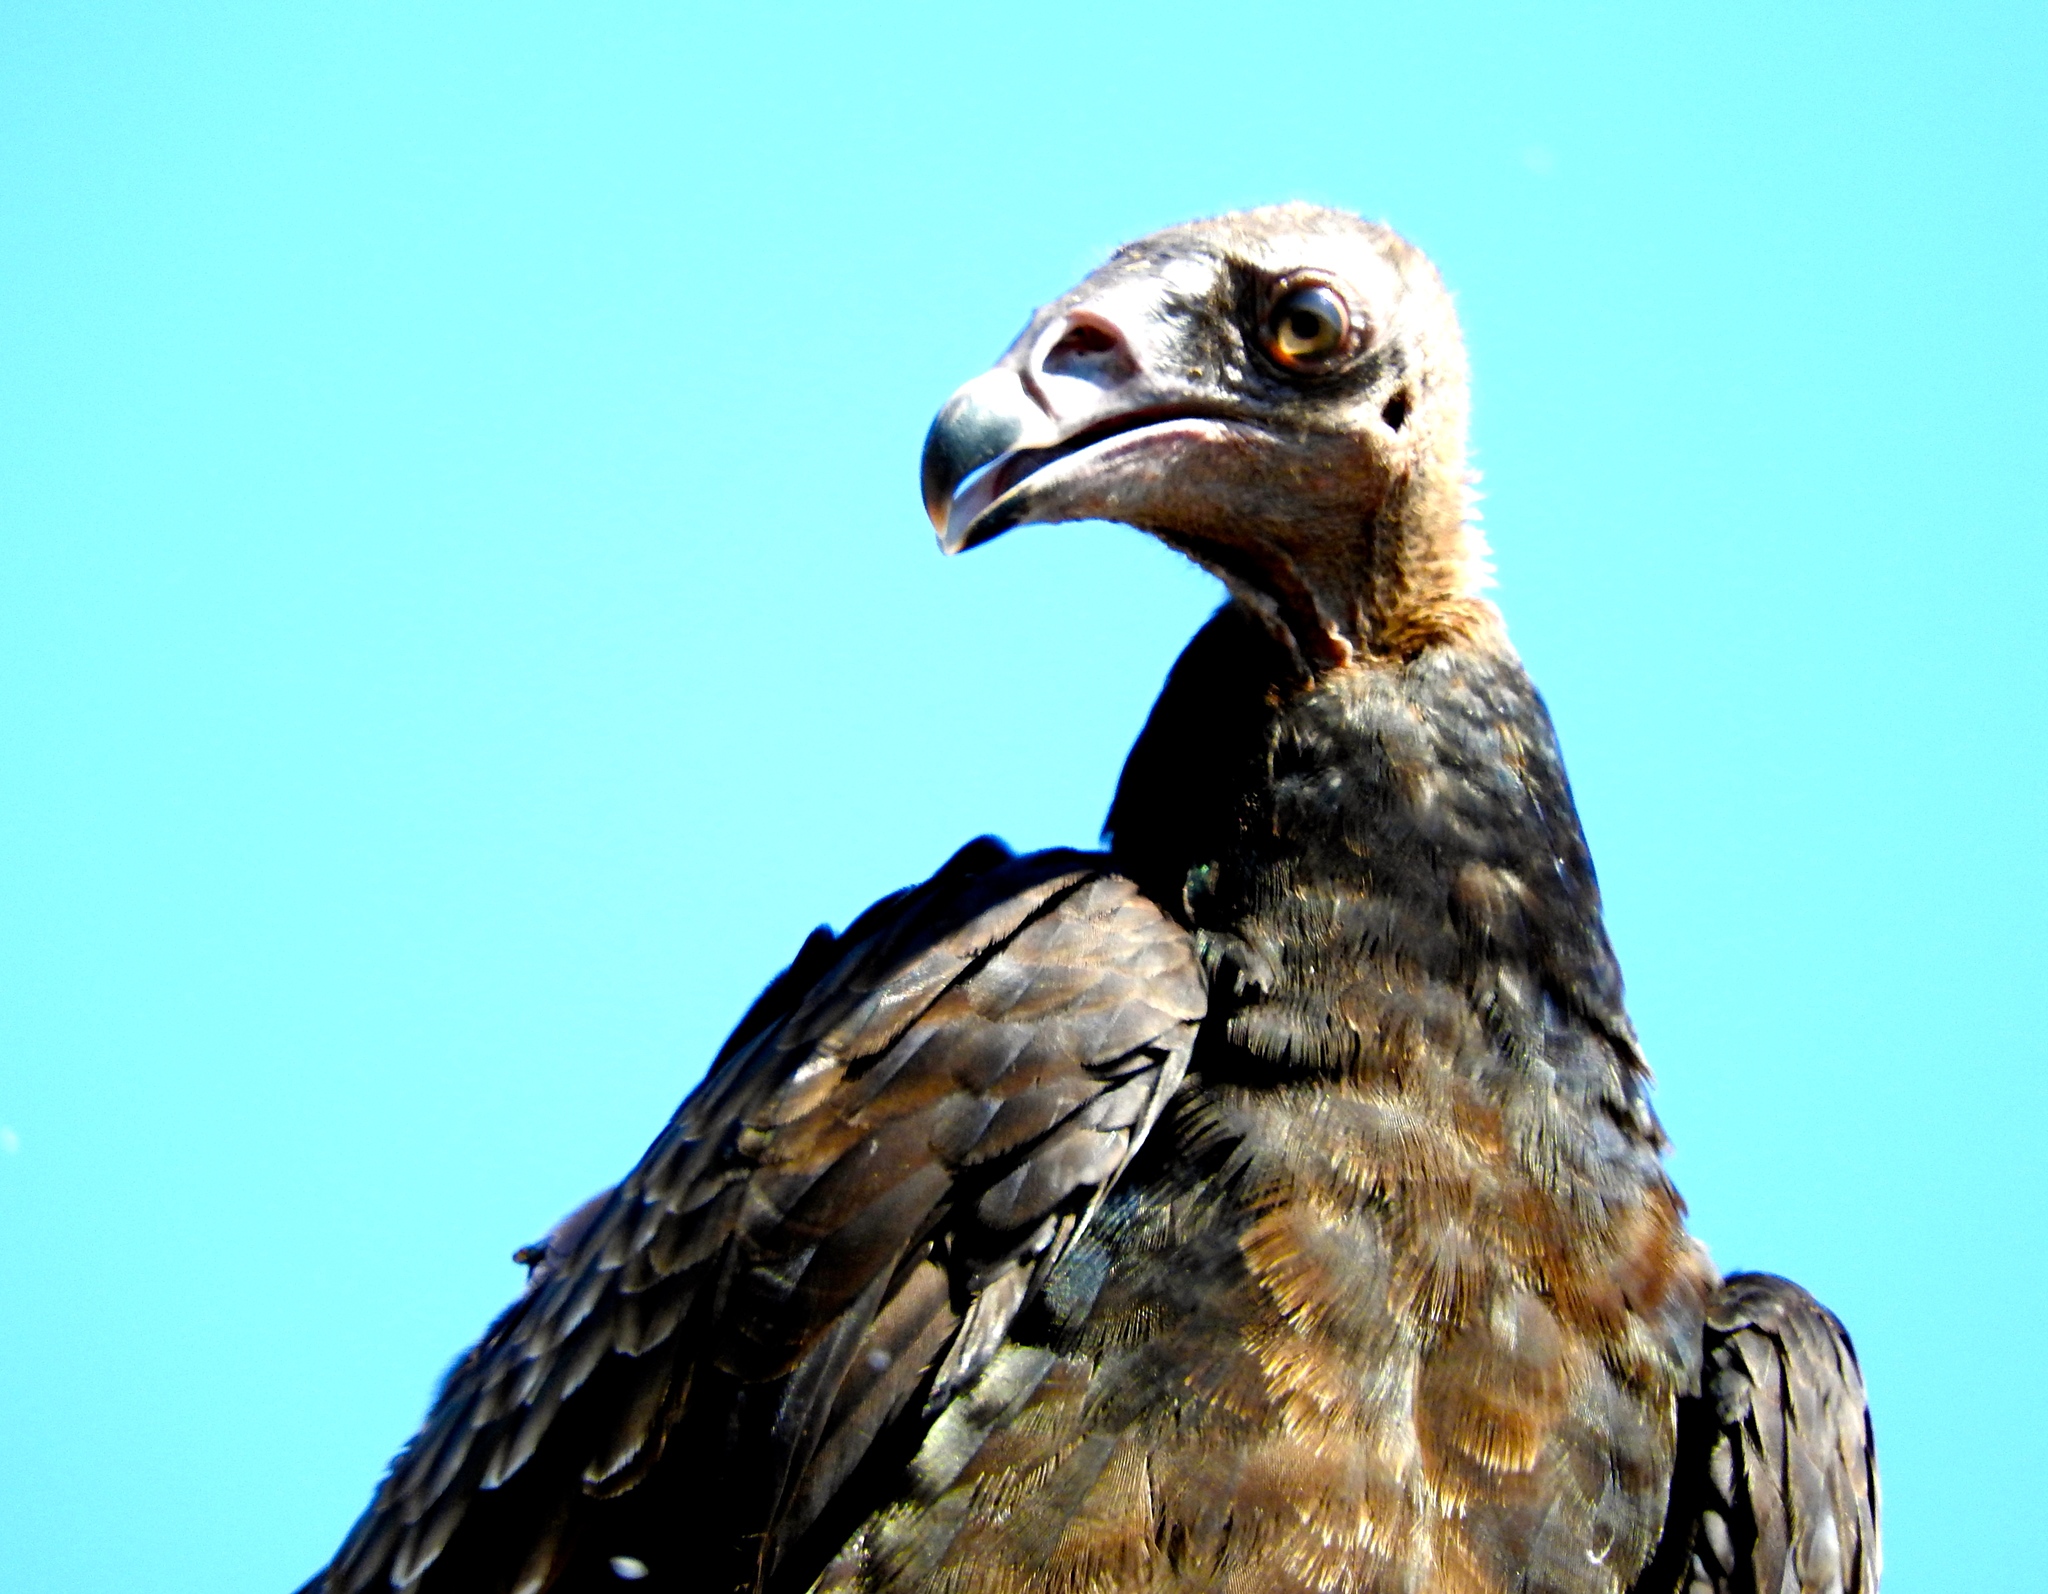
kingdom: Animalia
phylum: Chordata
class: Aves
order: Accipitriformes
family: Cathartidae
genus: Cathartes
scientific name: Cathartes aura
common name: Turkey vulture
